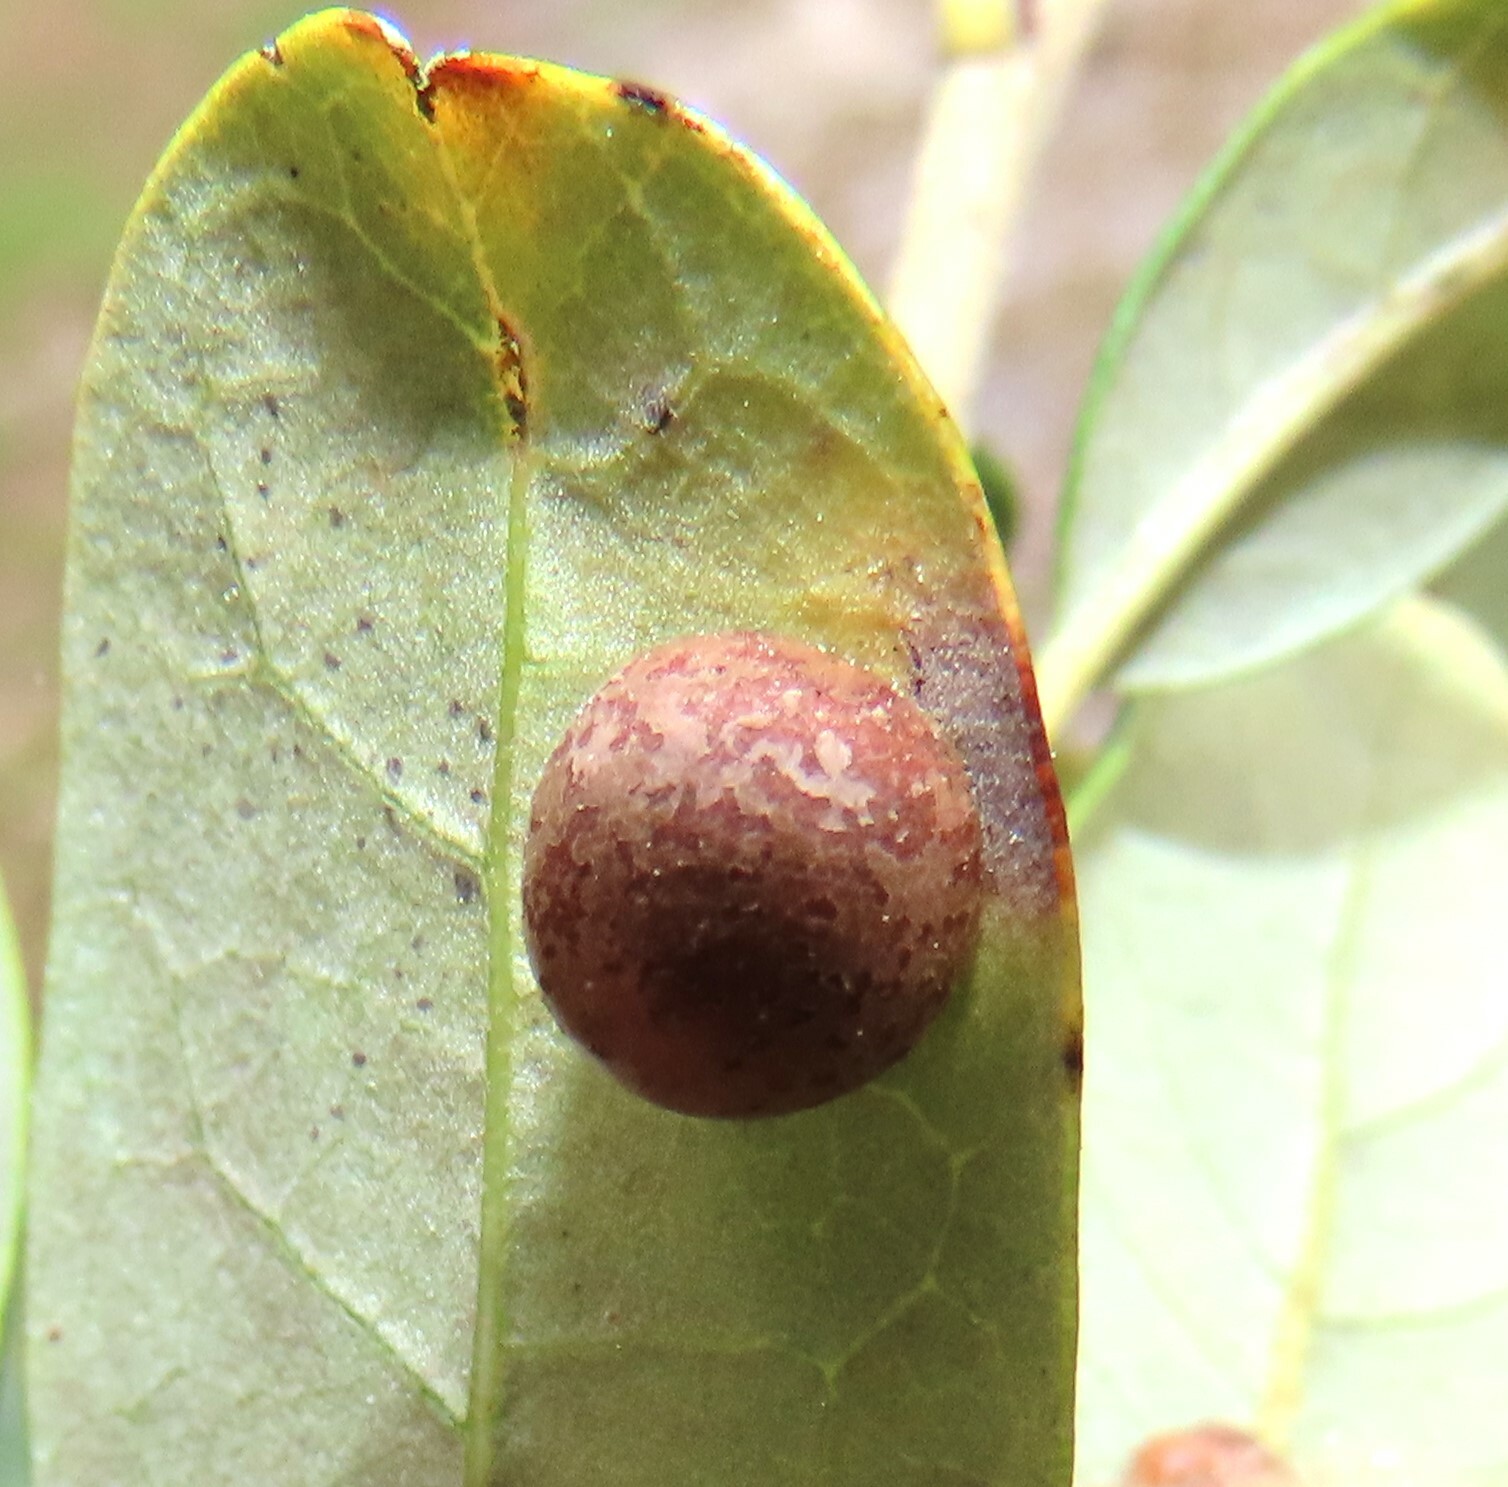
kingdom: Animalia
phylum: Arthropoda
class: Insecta
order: Hymenoptera
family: Cynipidae
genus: Belonocnema
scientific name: Belonocnema treatae
